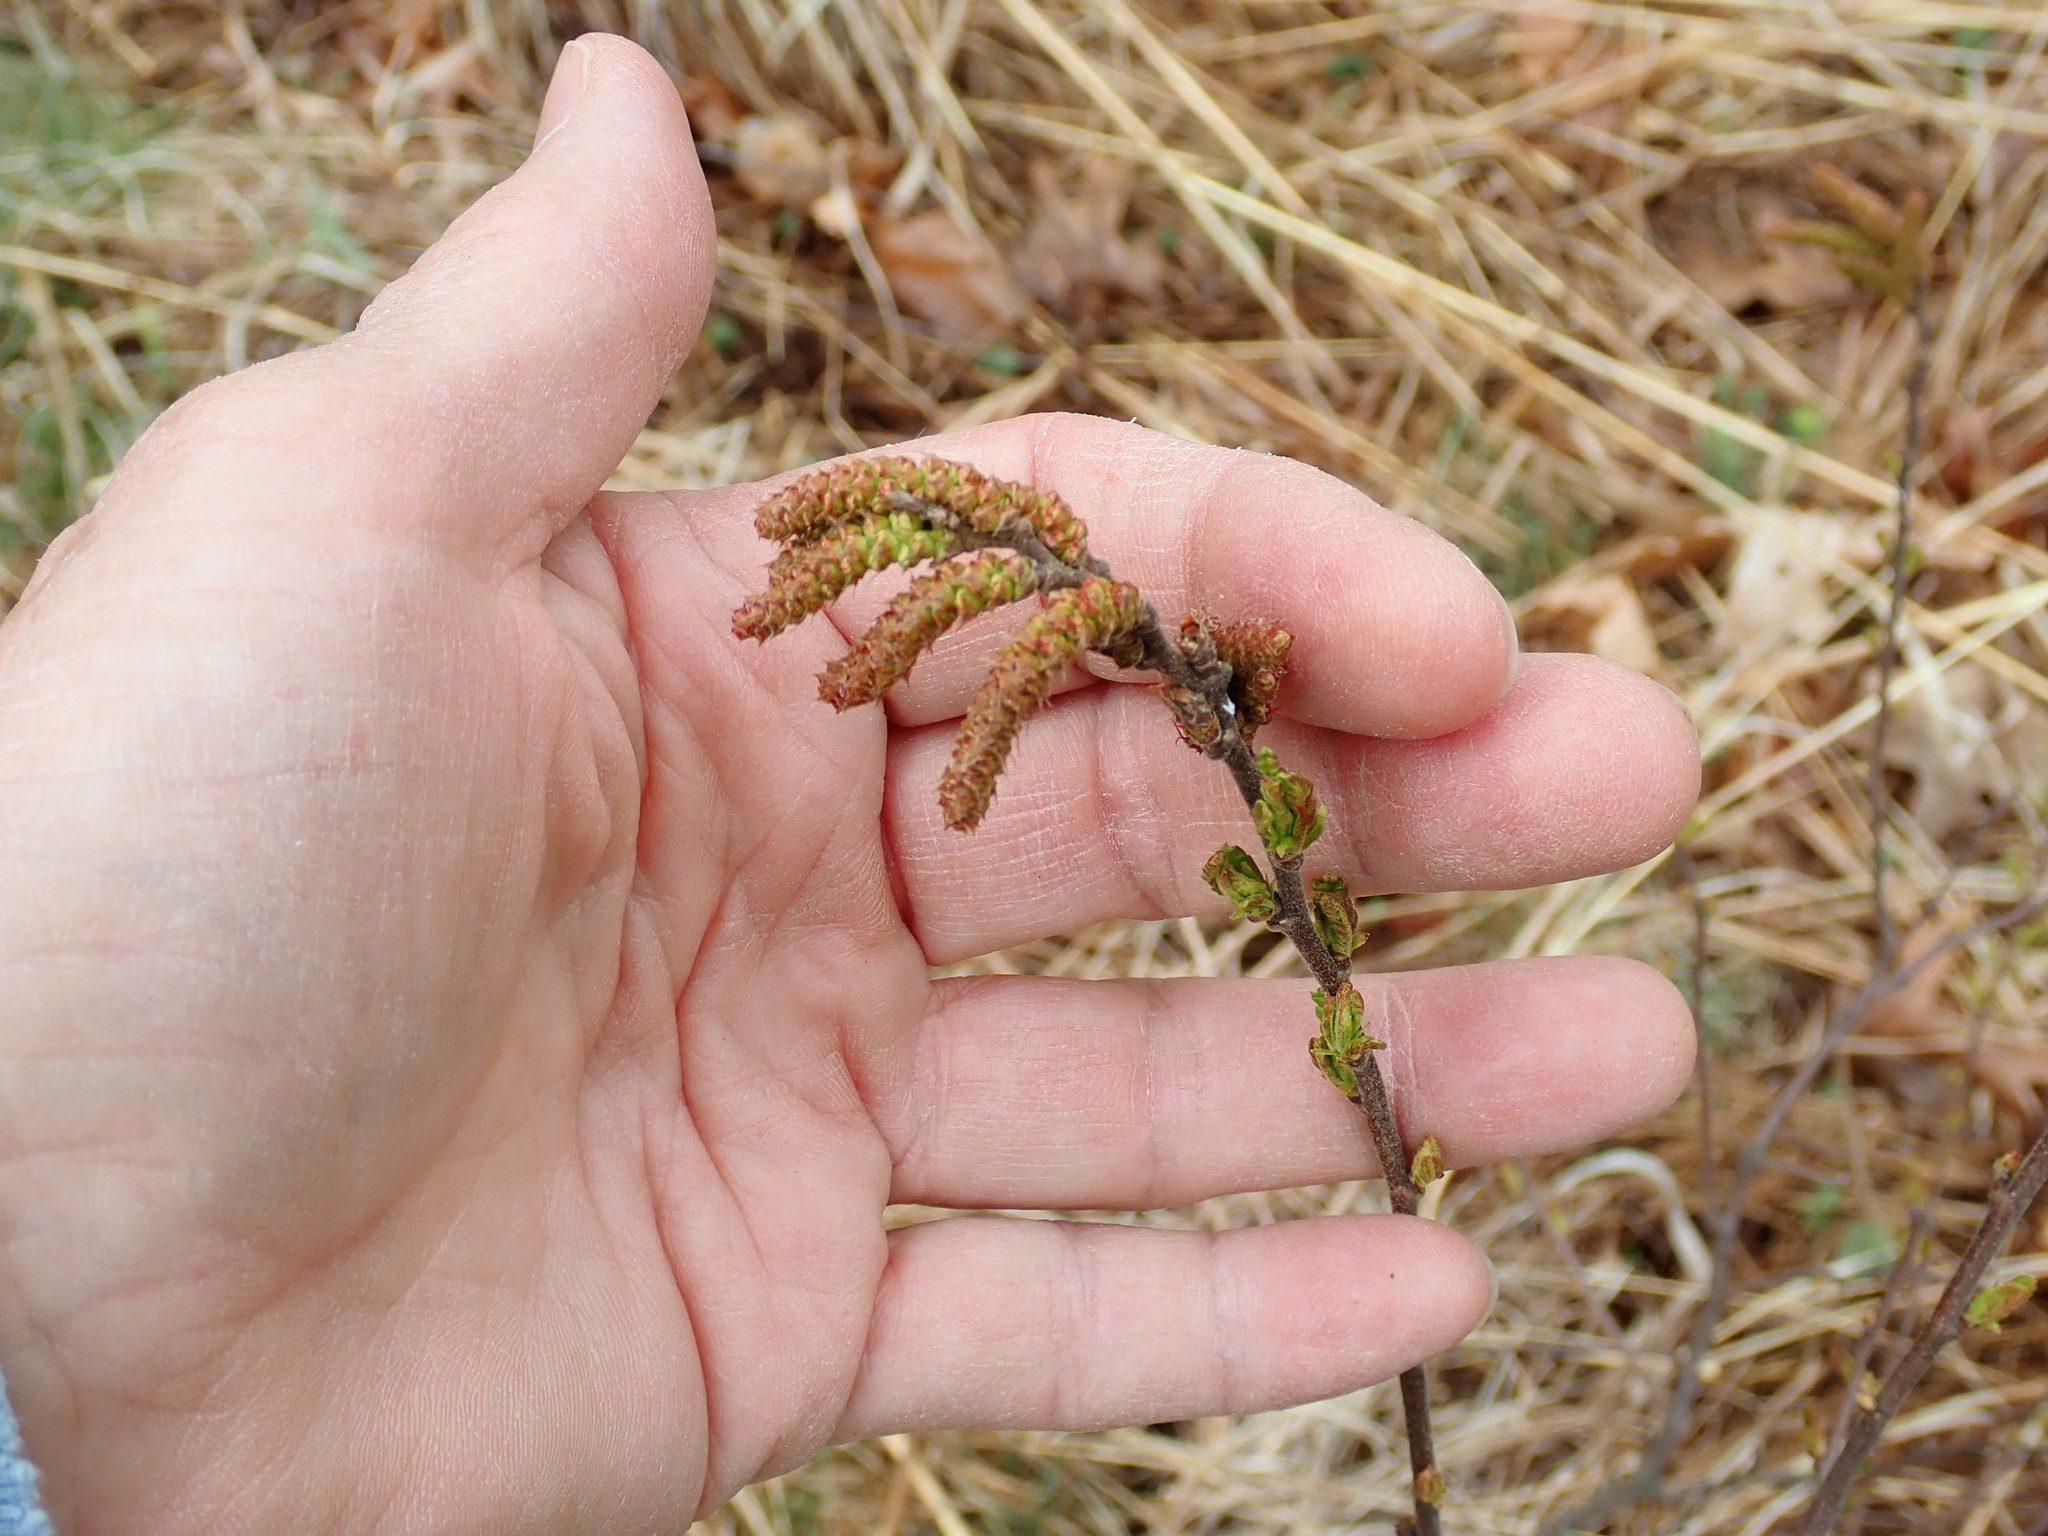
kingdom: Plantae
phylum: Tracheophyta
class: Magnoliopsida
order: Fagales
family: Myricaceae
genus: Comptonia
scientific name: Comptonia peregrina
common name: Sweet-fern
